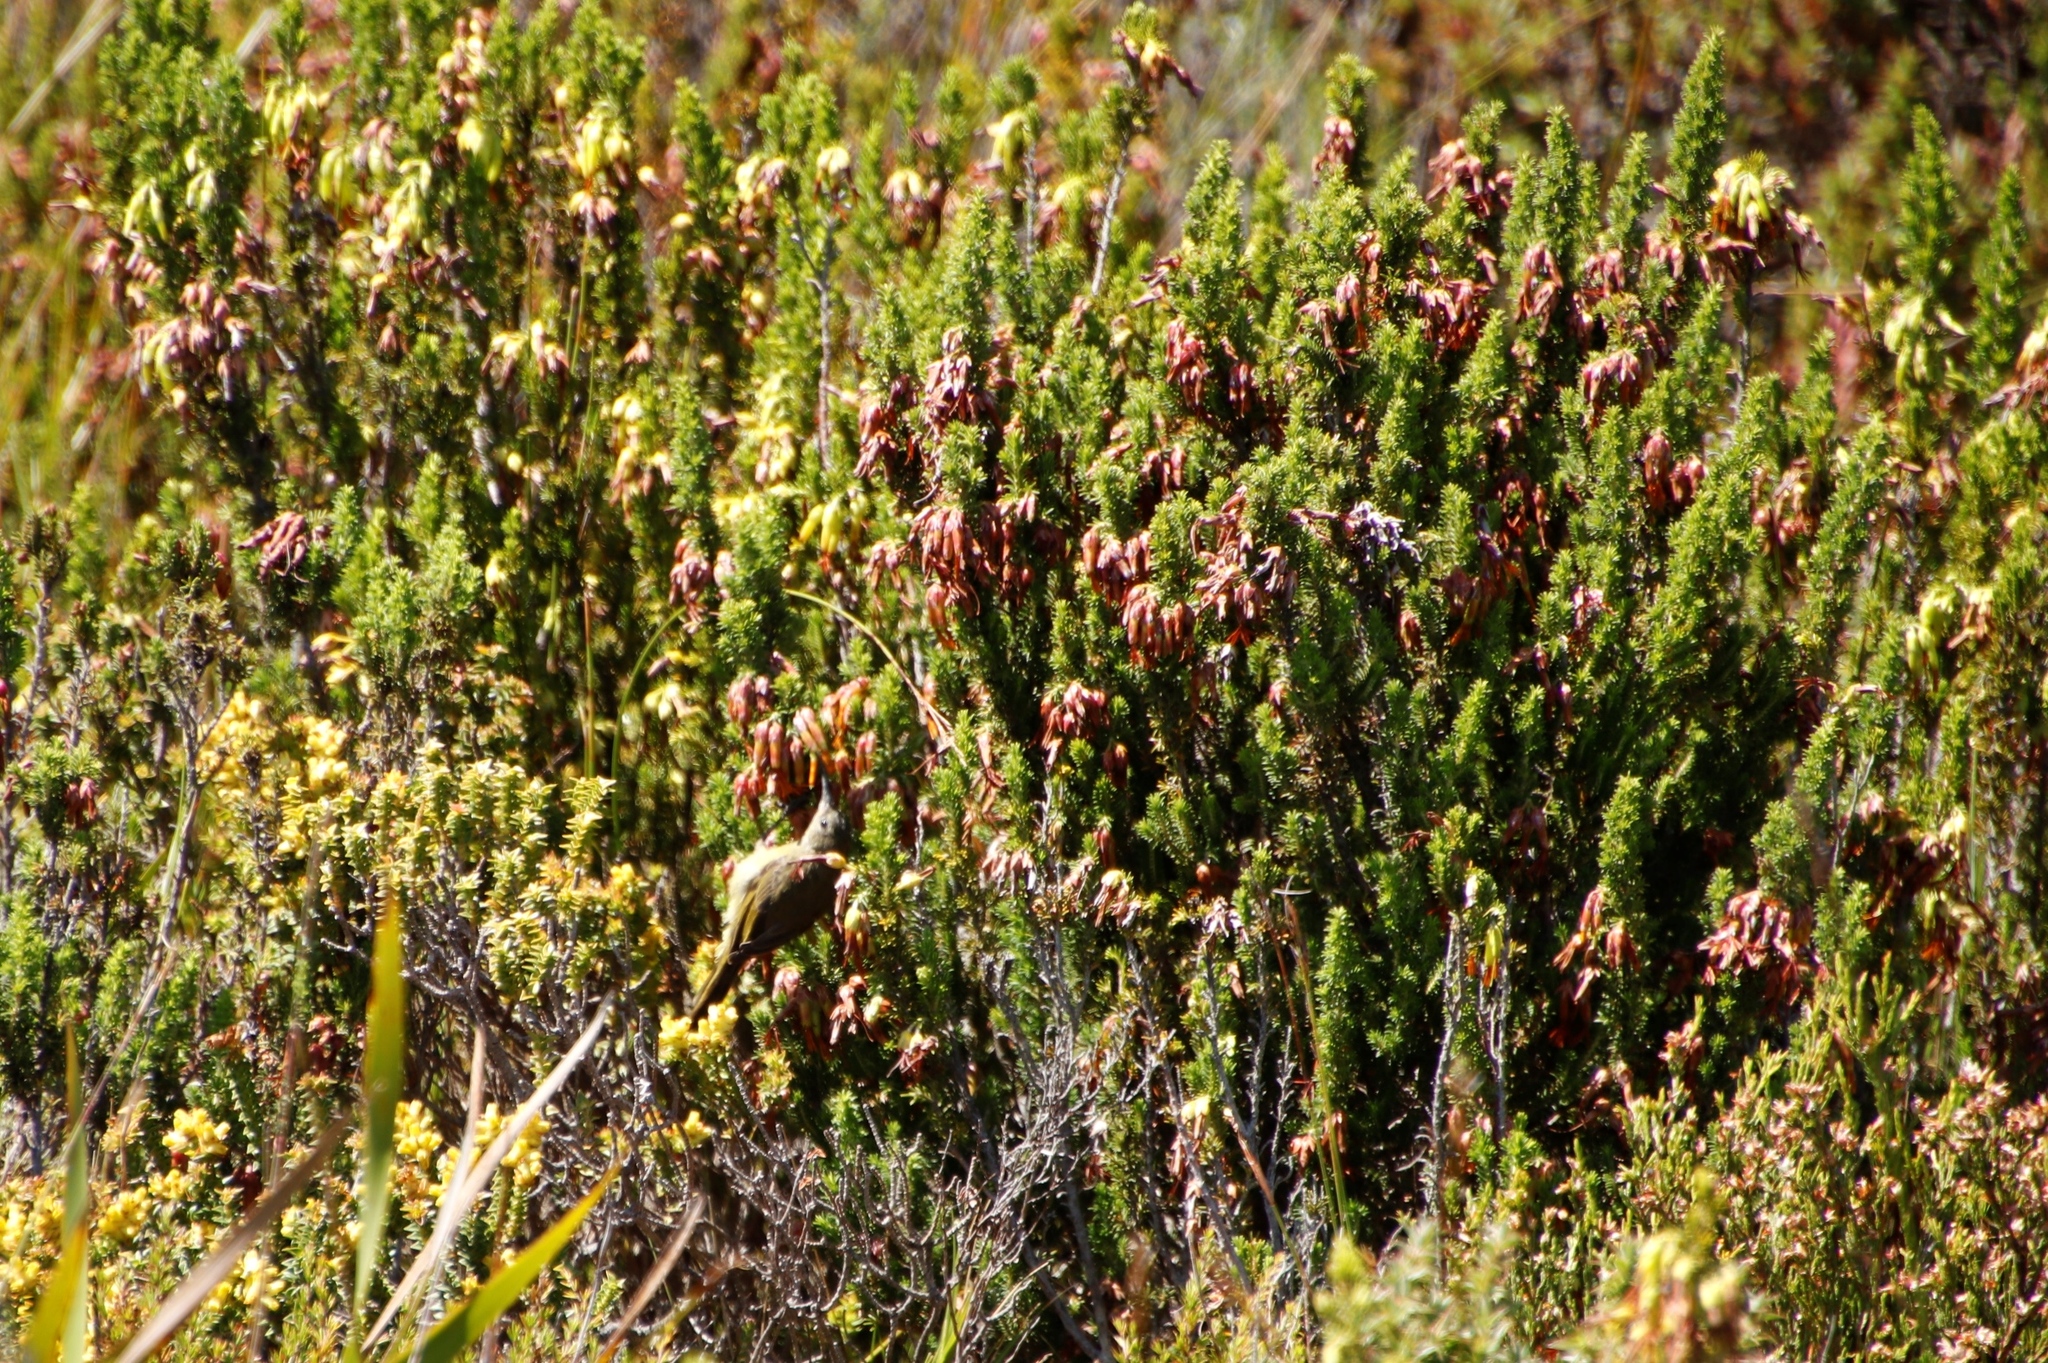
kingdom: Animalia
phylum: Chordata
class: Aves
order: Passeriformes
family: Nectariniidae
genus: Anthobaphes
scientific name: Anthobaphes violacea
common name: Orange-breasted sunbird
